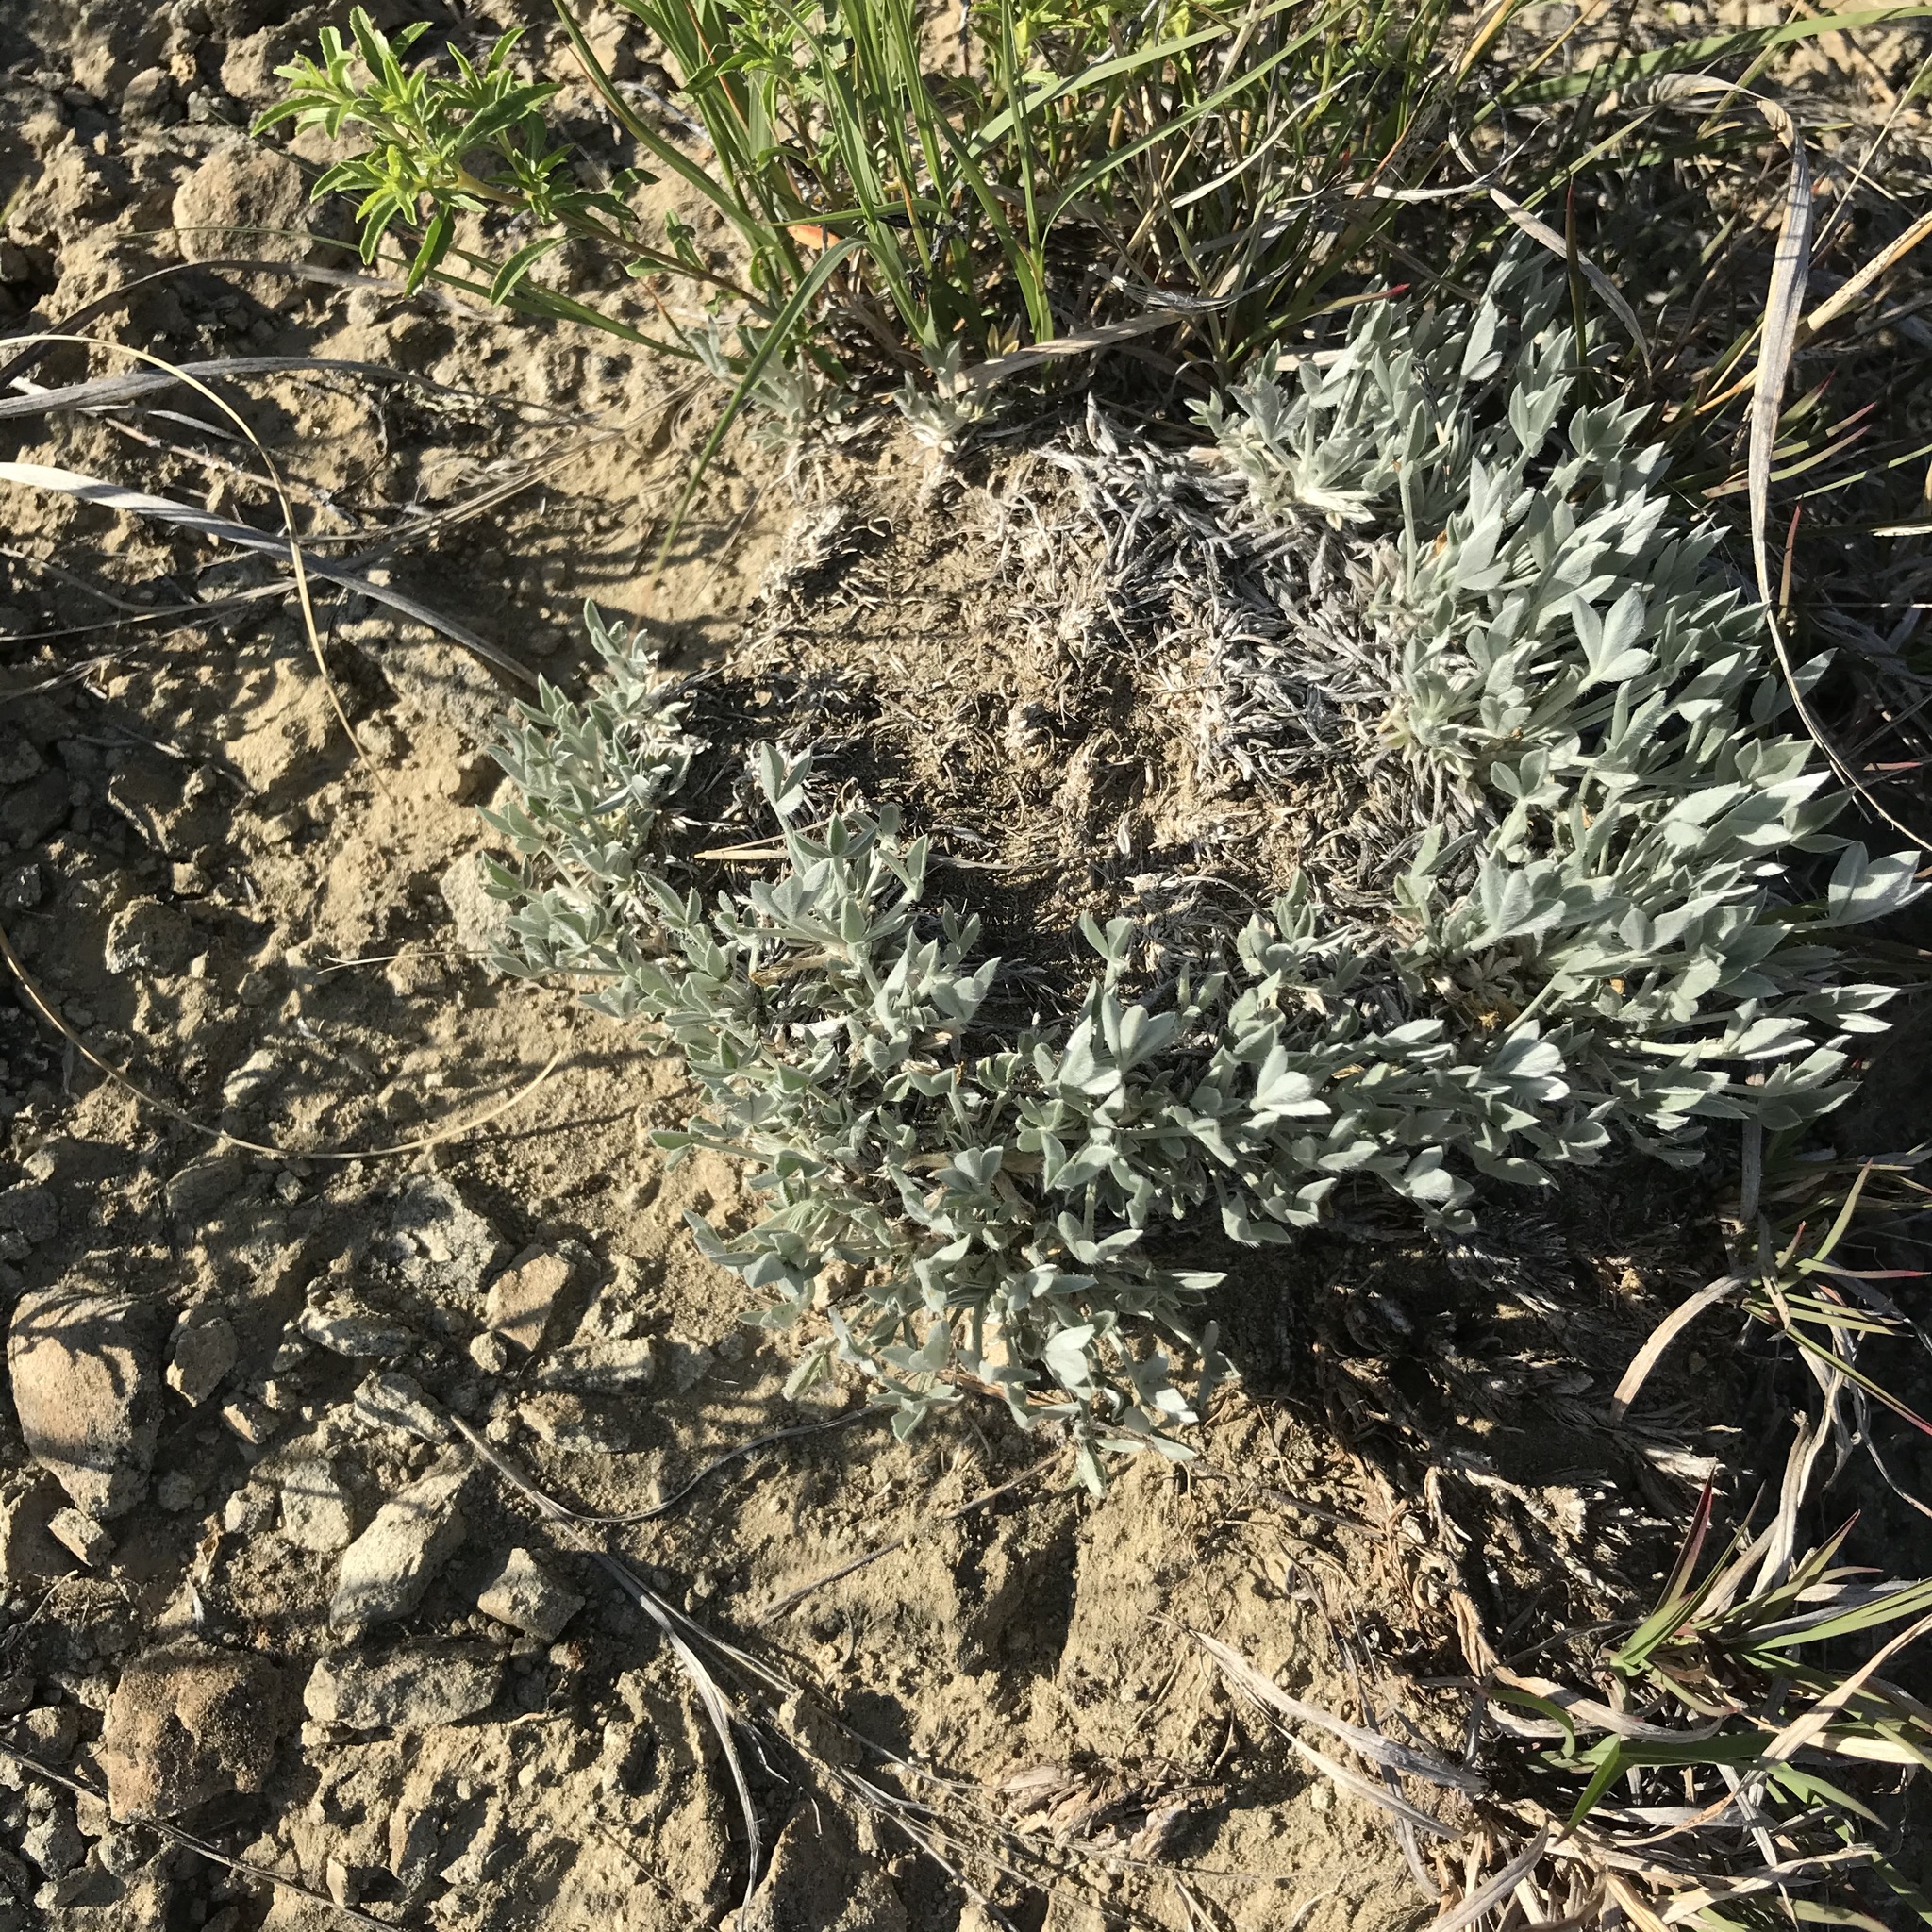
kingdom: Plantae
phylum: Tracheophyta
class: Magnoliopsida
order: Fabales
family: Fabaceae
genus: Astragalus
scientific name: Astragalus gilviflorus
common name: Cushion milk-vetch
